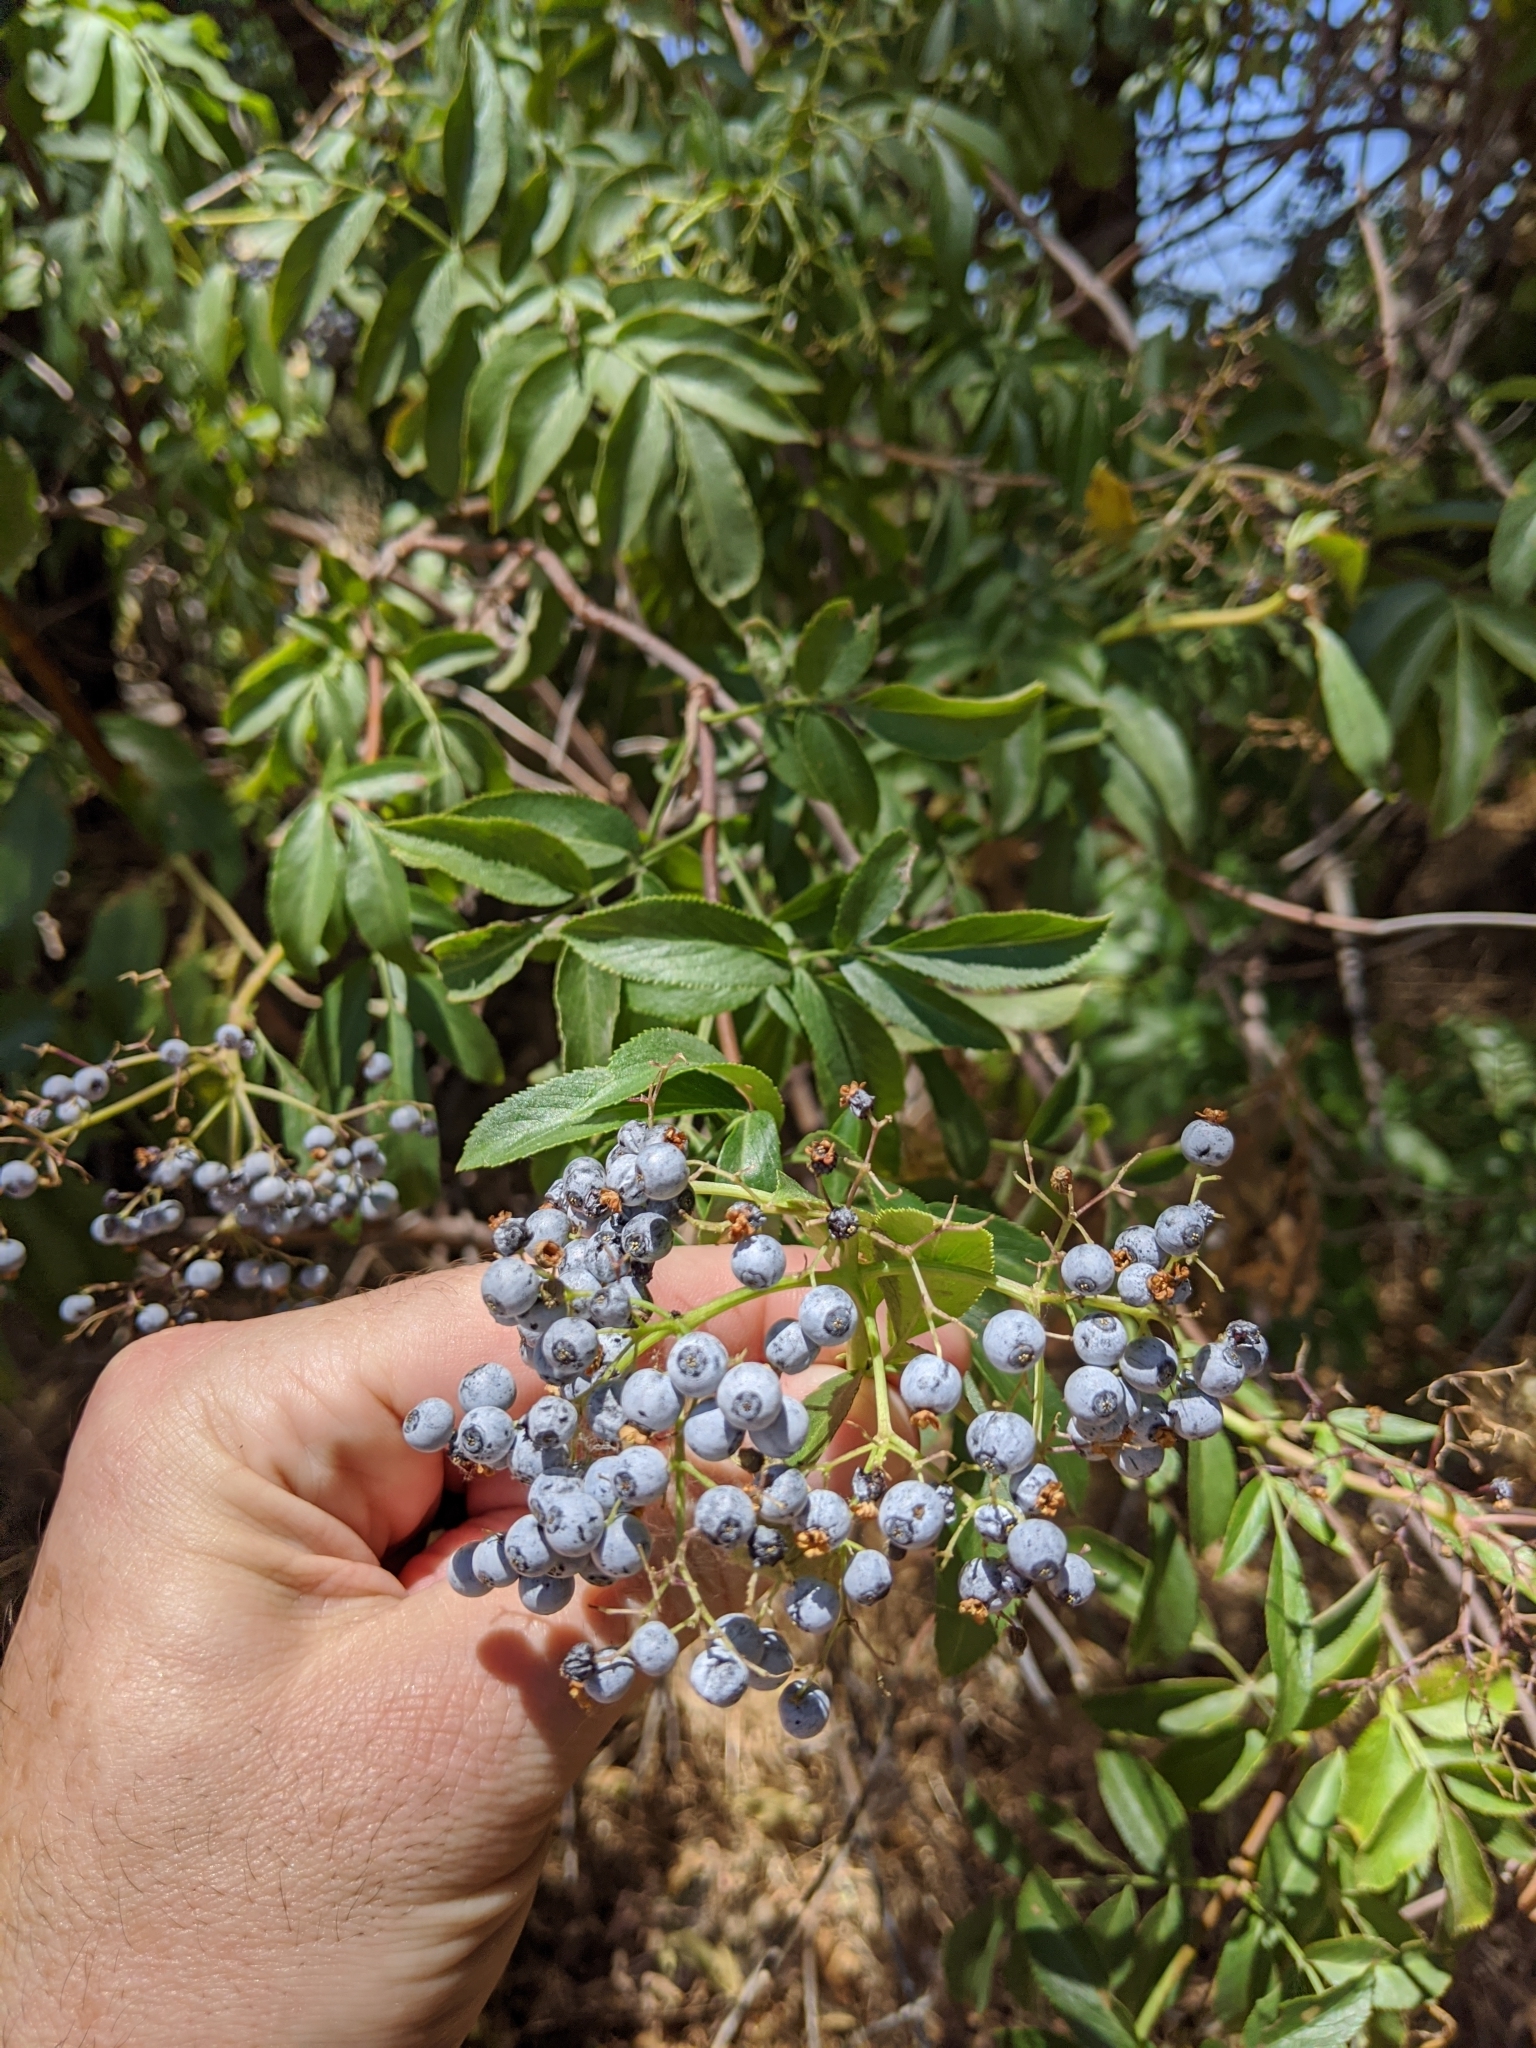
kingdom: Plantae
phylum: Tracheophyta
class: Magnoliopsida
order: Dipsacales
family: Viburnaceae
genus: Sambucus
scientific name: Sambucus cerulea
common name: Blue elder
